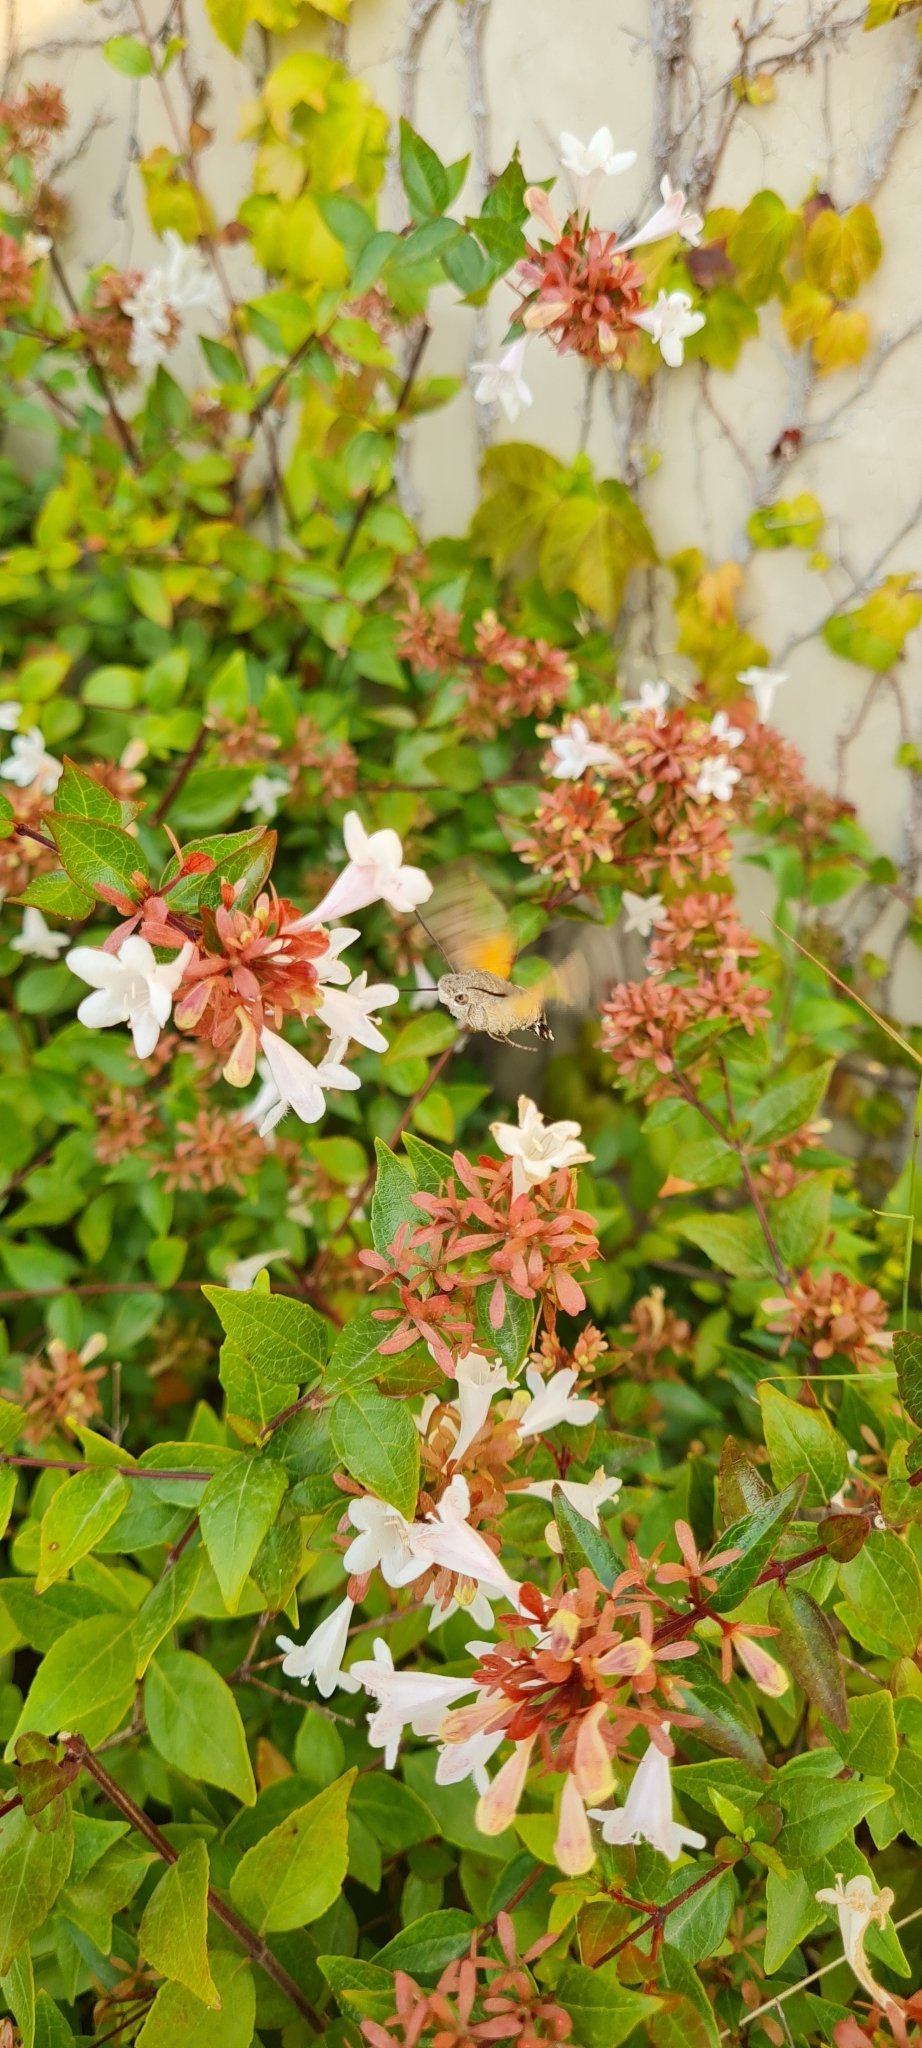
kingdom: Animalia
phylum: Arthropoda
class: Insecta
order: Lepidoptera
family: Sphingidae
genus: Macroglossum
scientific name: Macroglossum stellatarum
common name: Humming-bird hawk-moth
